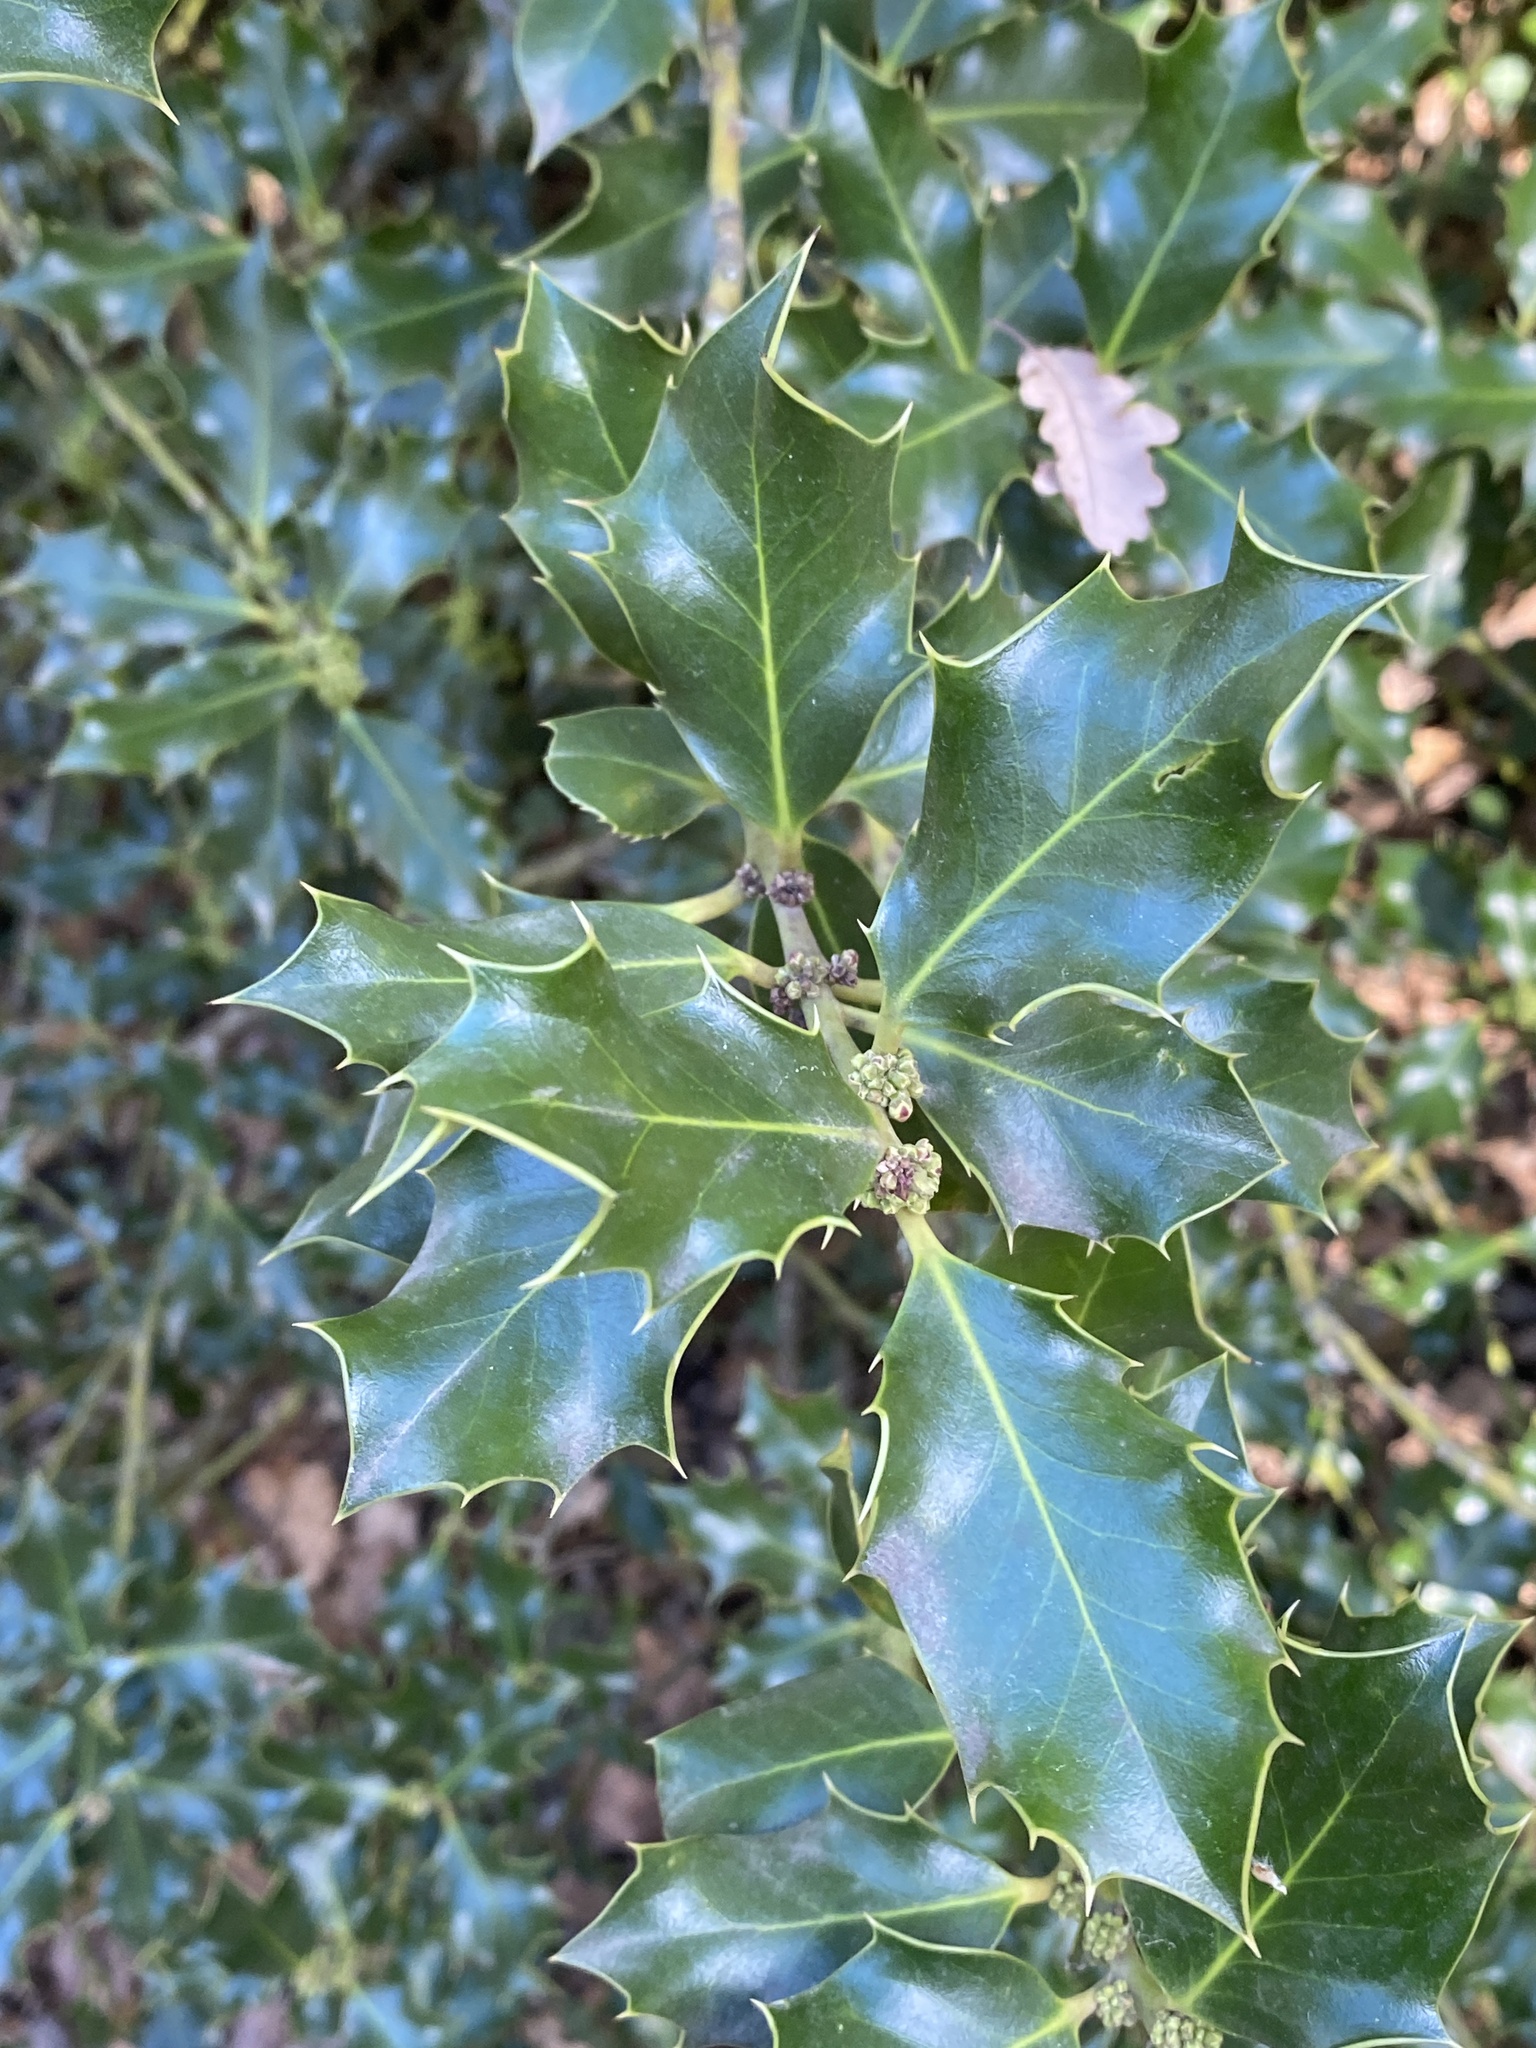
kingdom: Plantae
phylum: Tracheophyta
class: Magnoliopsida
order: Aquifoliales
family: Aquifoliaceae
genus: Ilex
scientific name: Ilex aquifolium
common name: English holly
